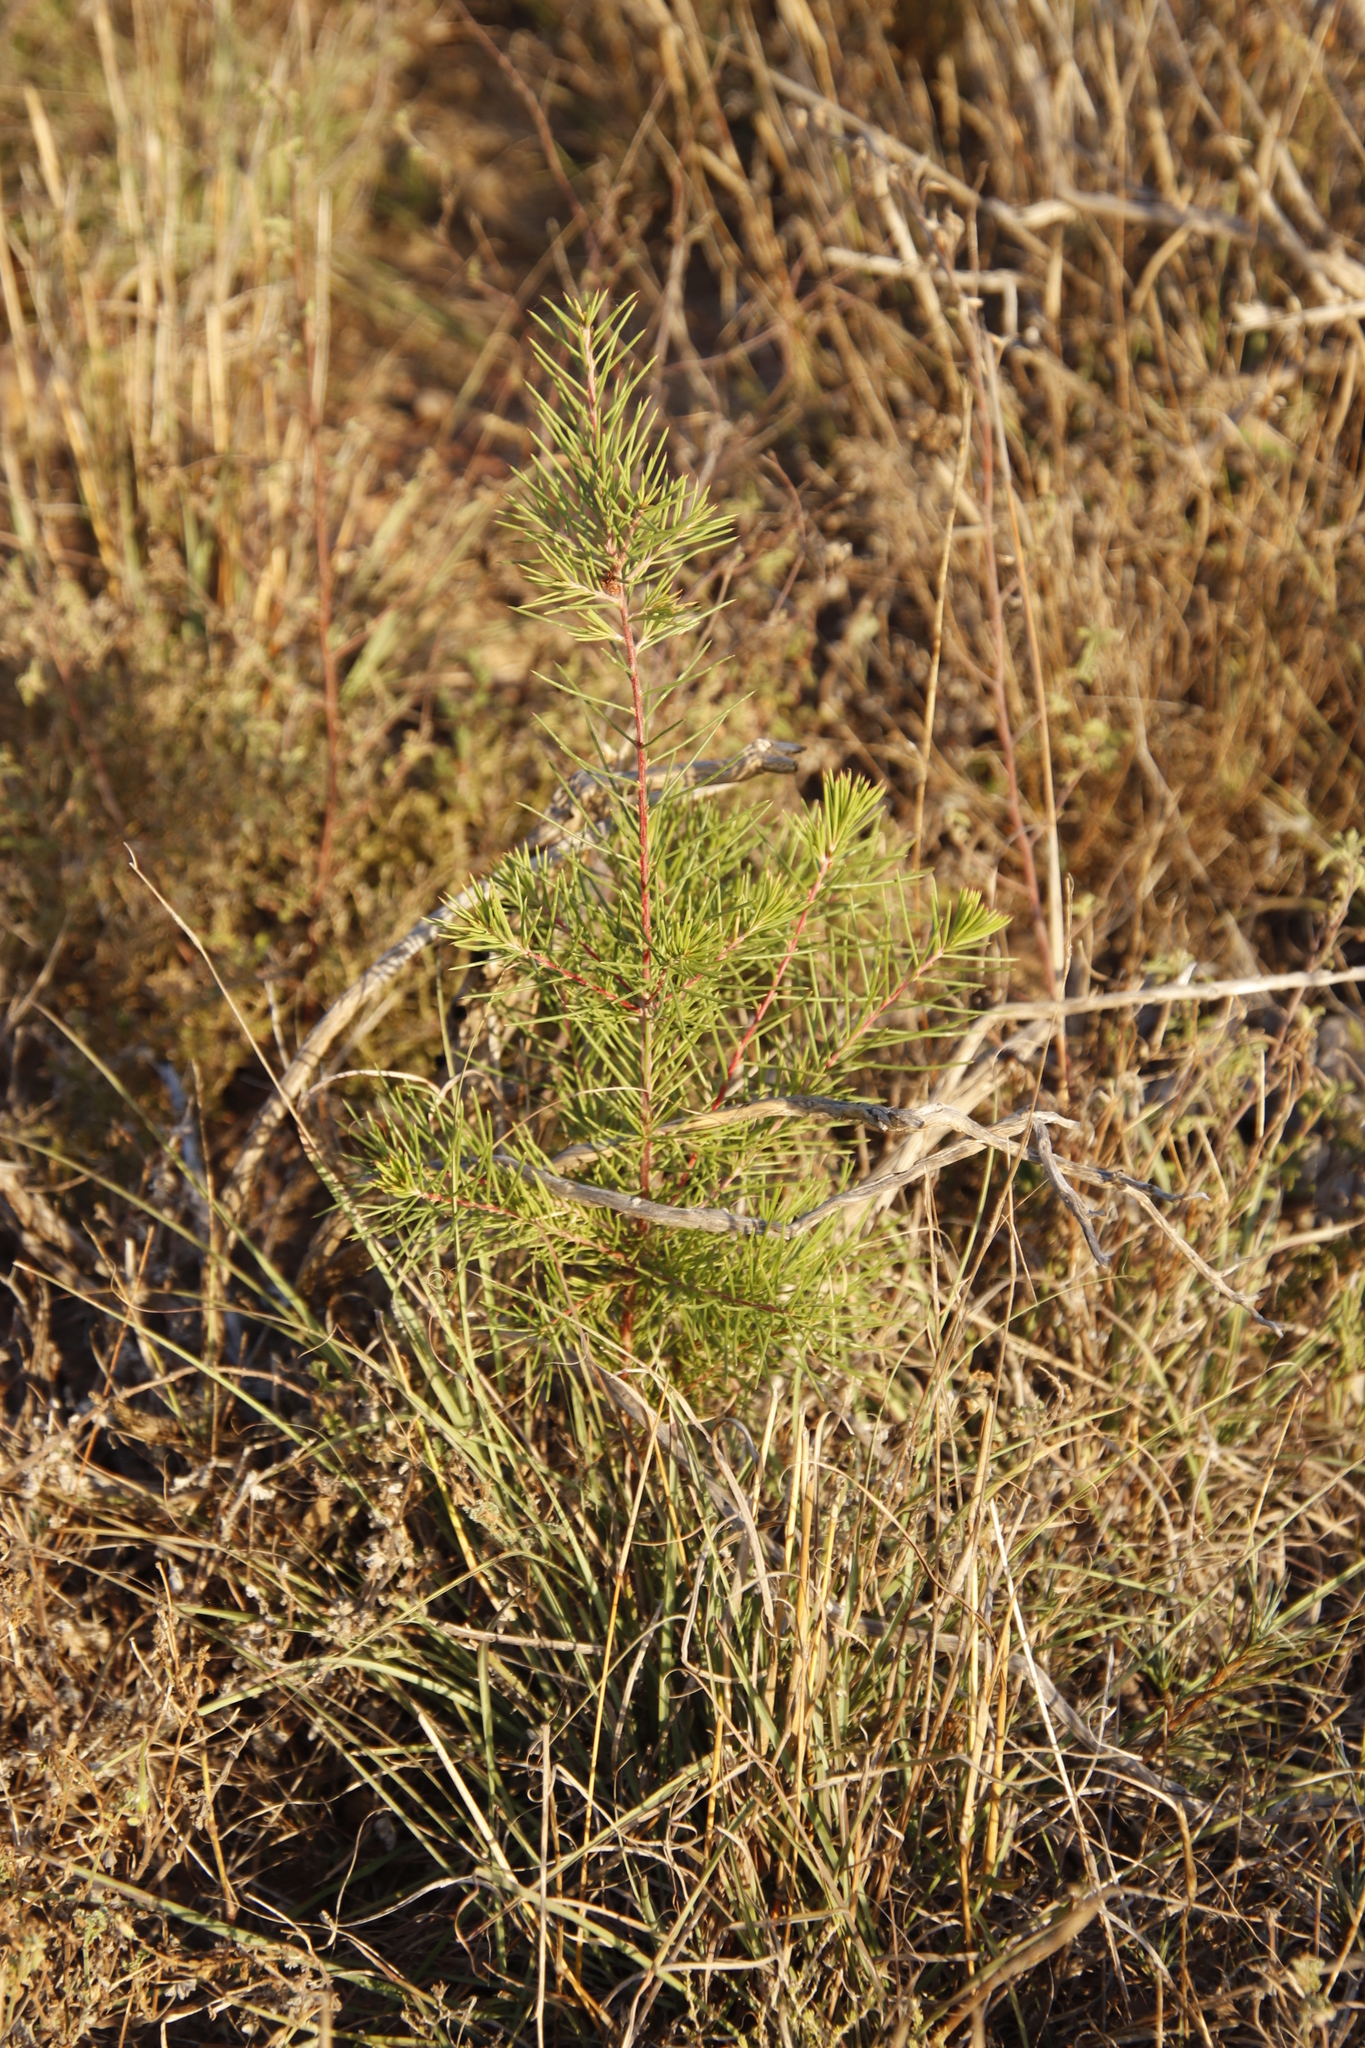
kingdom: Plantae
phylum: Tracheophyta
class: Magnoliopsida
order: Proteales
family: Proteaceae
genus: Hakea
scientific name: Hakea sericea
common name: Needle bush
